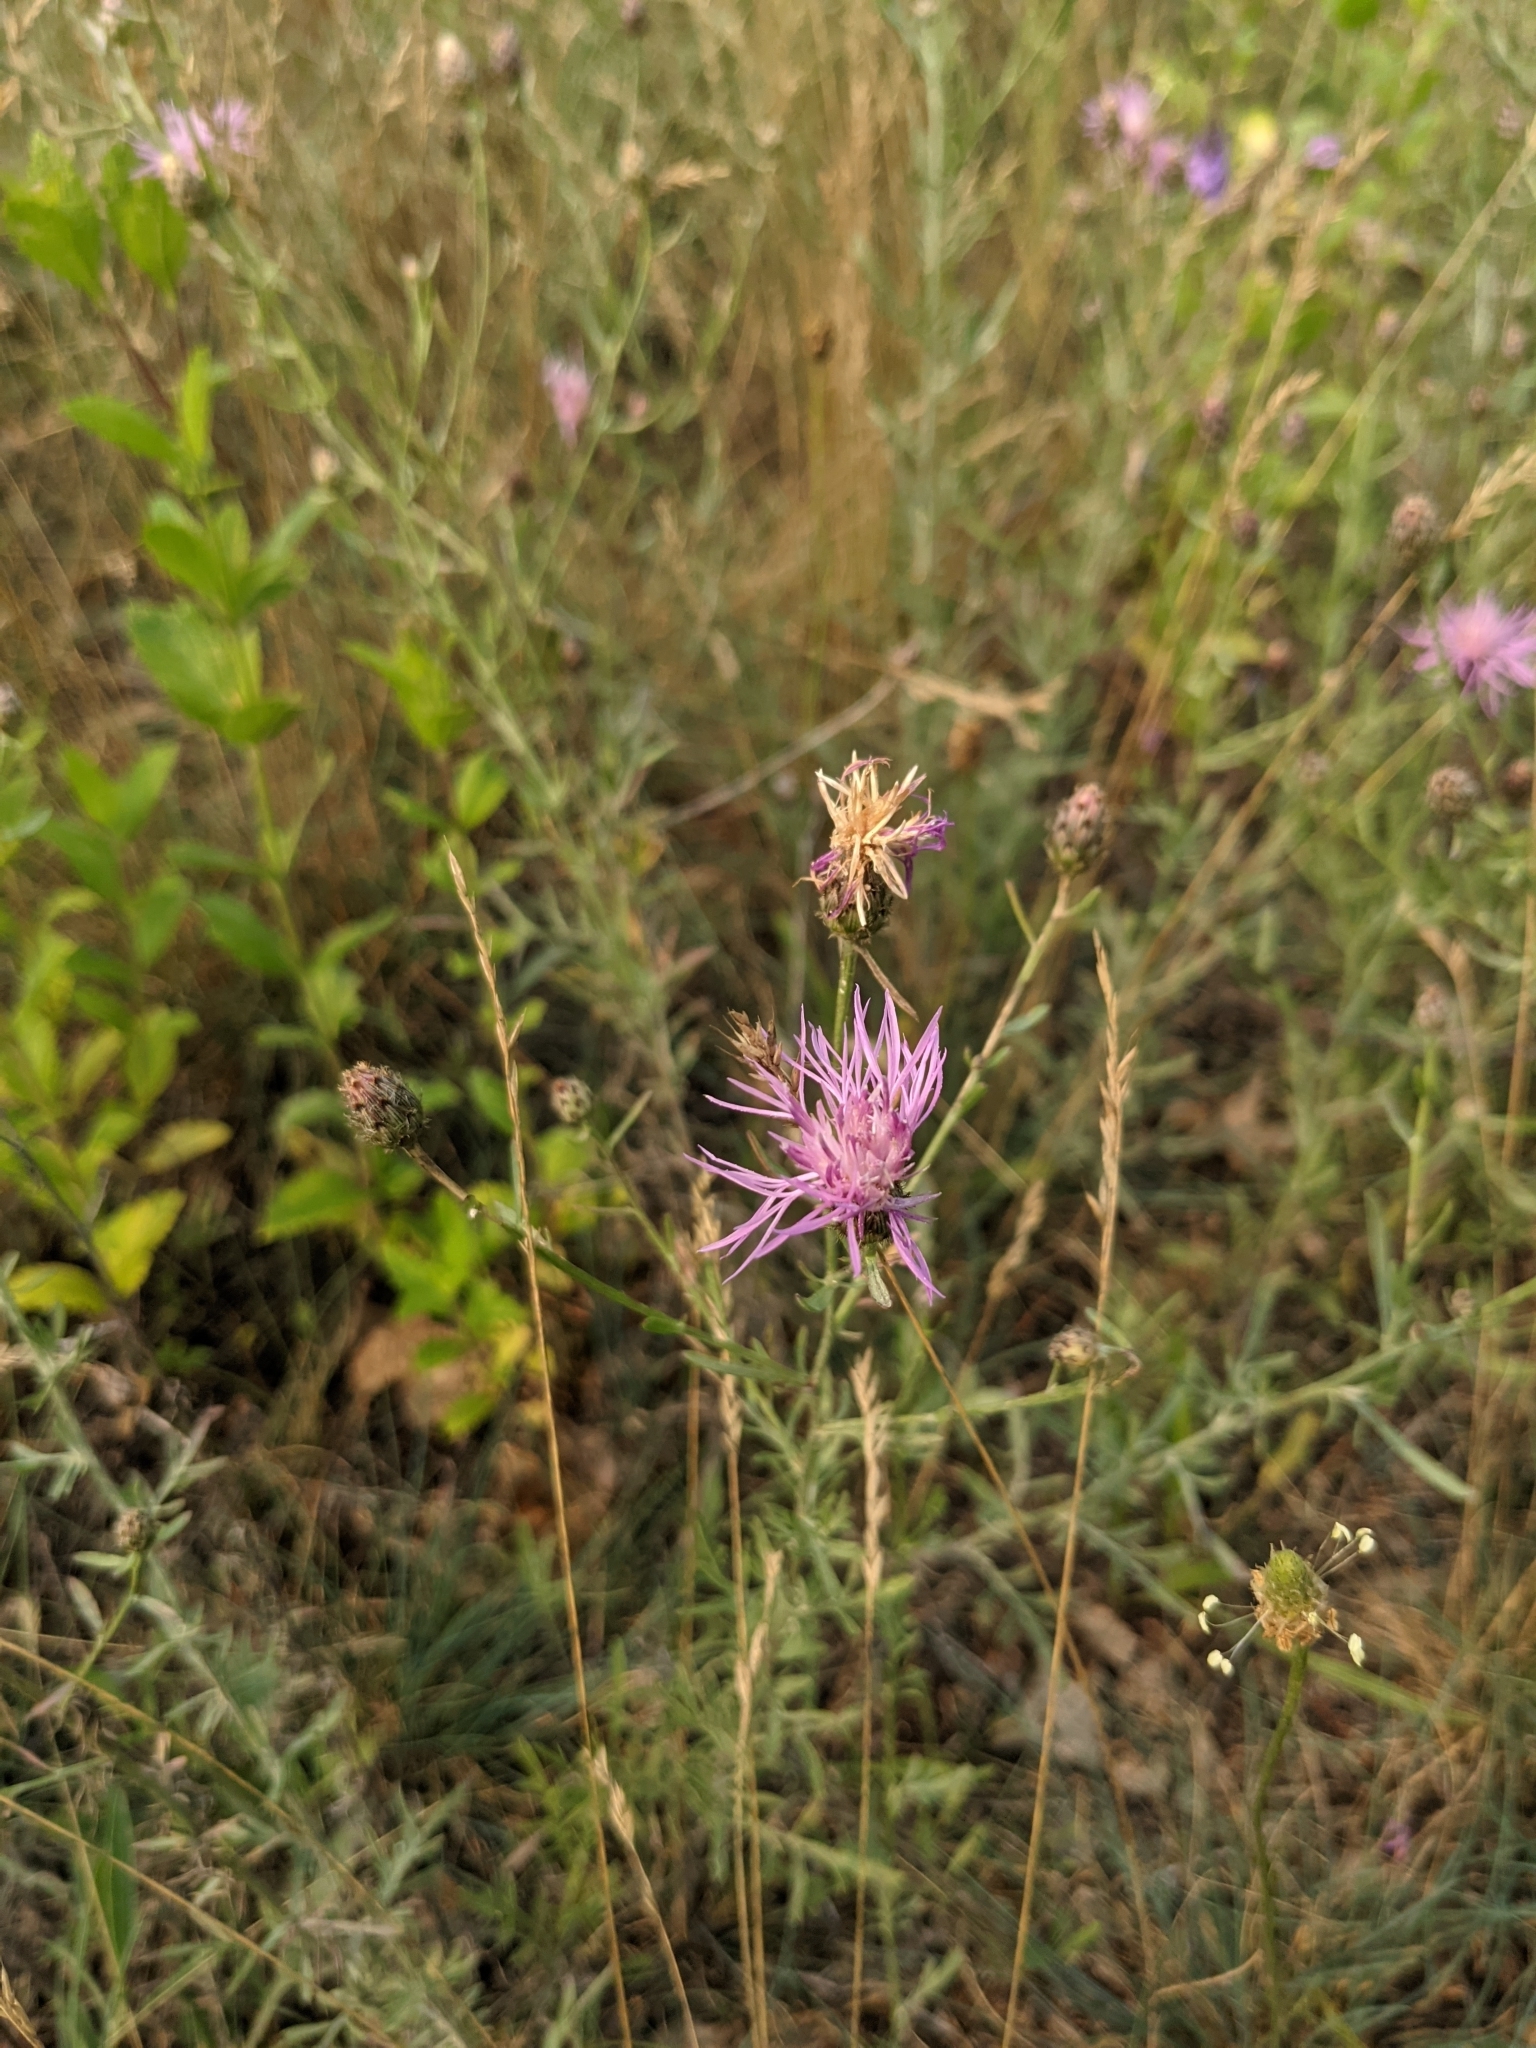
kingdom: Plantae
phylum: Tracheophyta
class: Magnoliopsida
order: Asterales
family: Asteraceae
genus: Centaurea
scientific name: Centaurea stoebe
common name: Spotted knapweed
